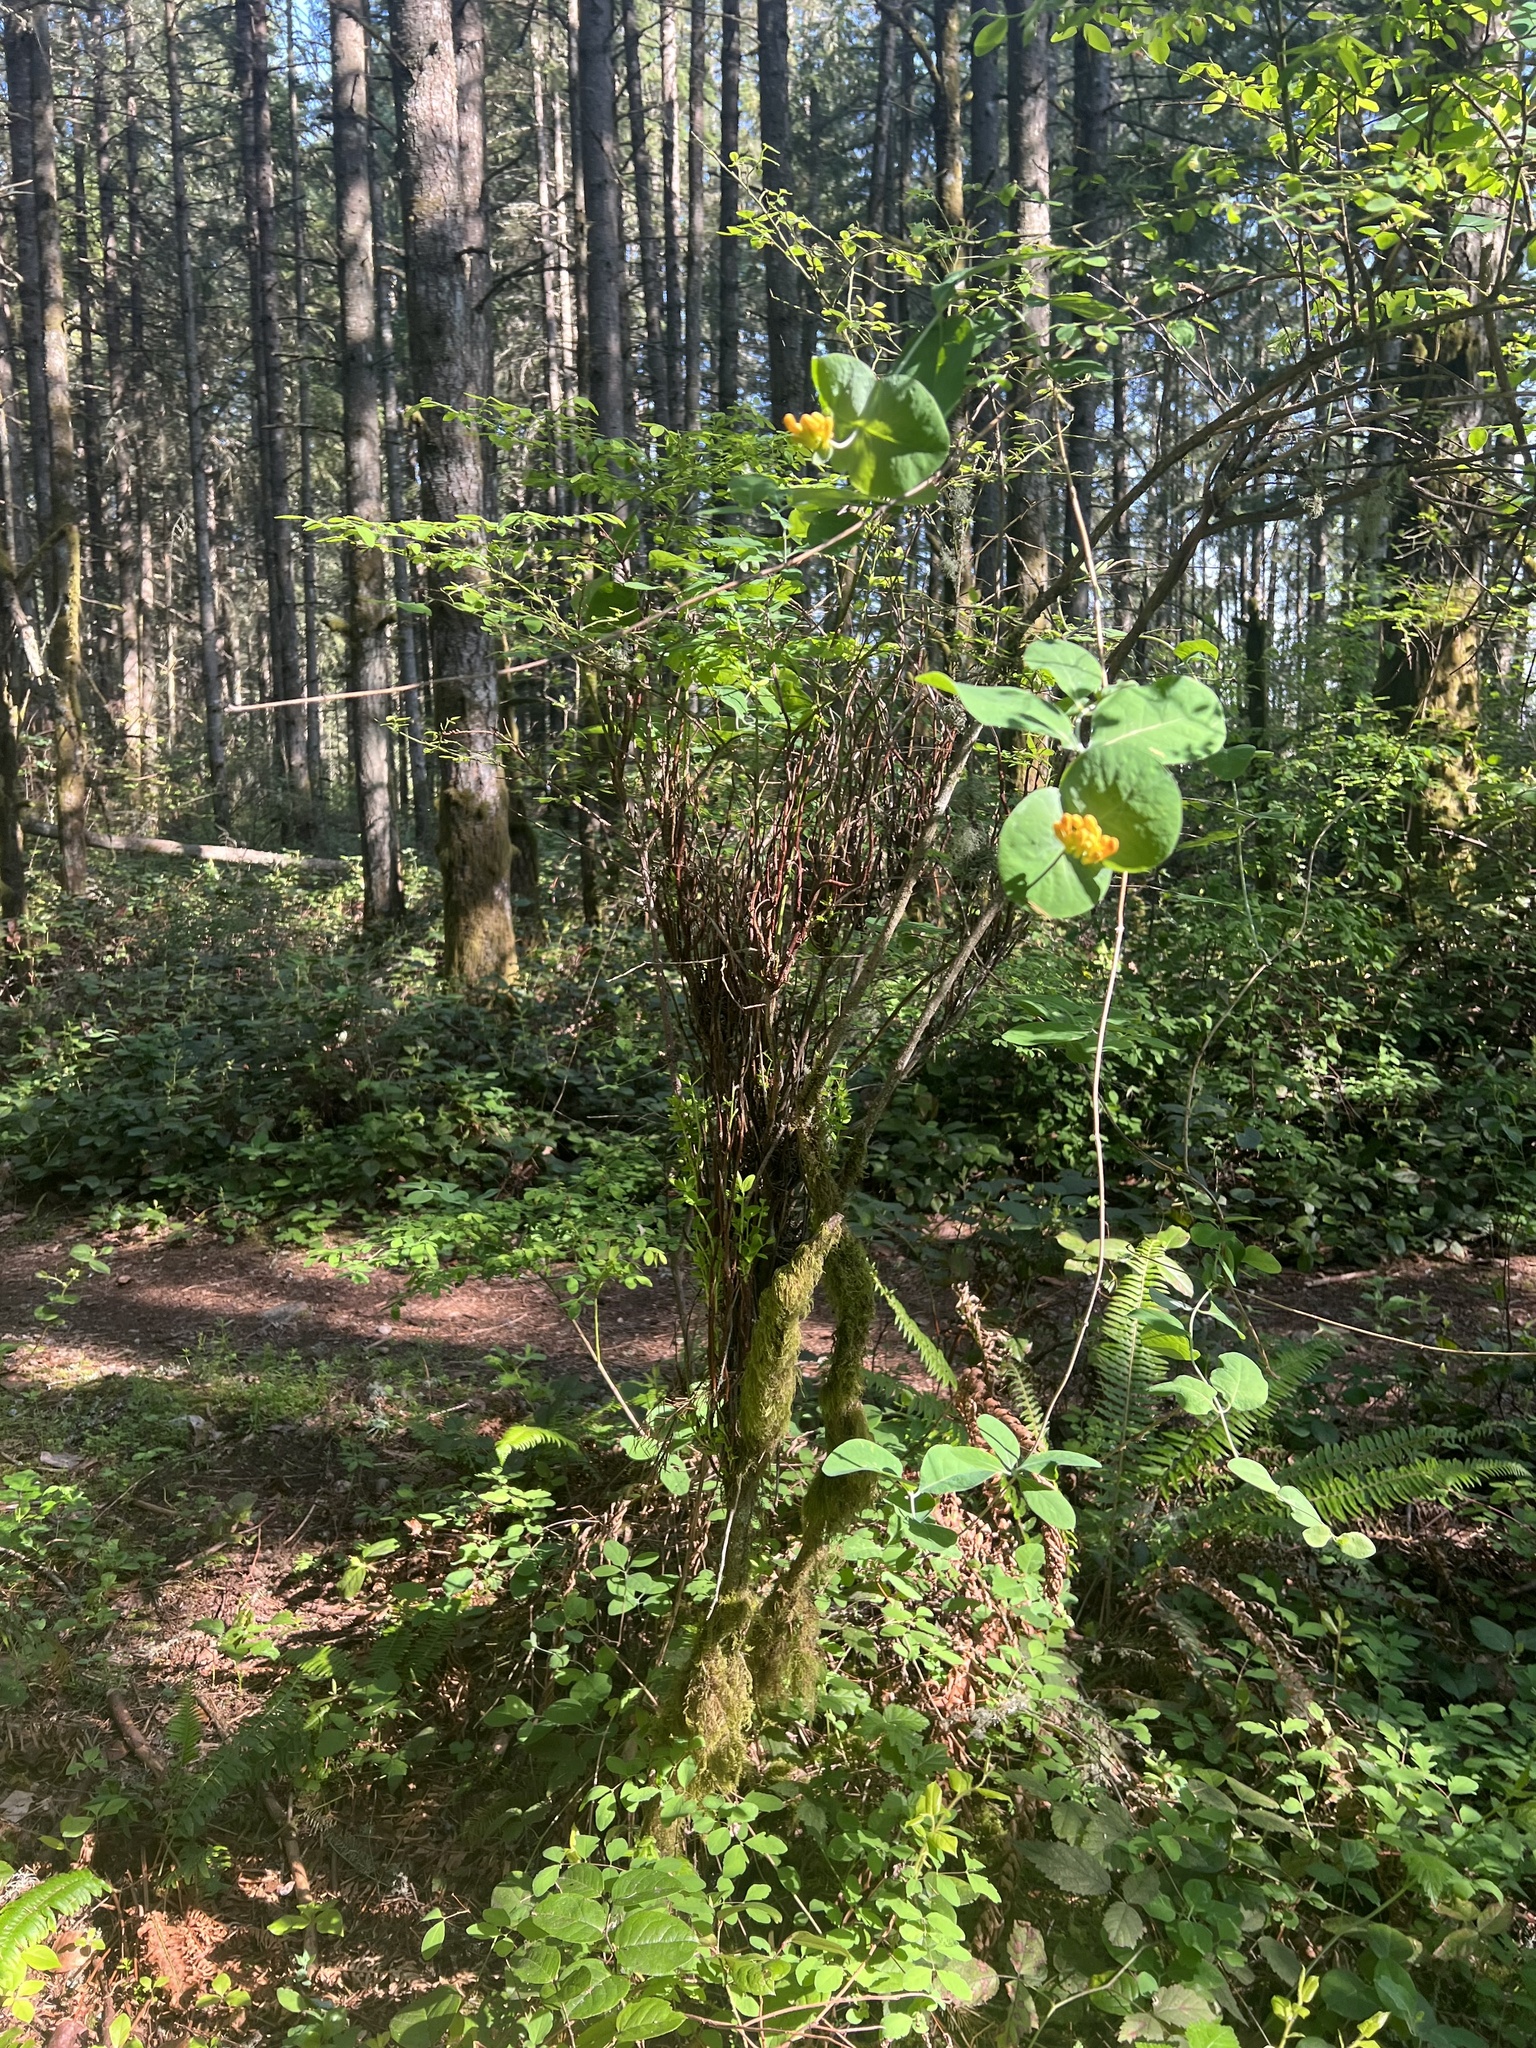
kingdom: Plantae
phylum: Tracheophyta
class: Magnoliopsida
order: Dipsacales
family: Caprifoliaceae
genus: Lonicera
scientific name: Lonicera ciliosa
